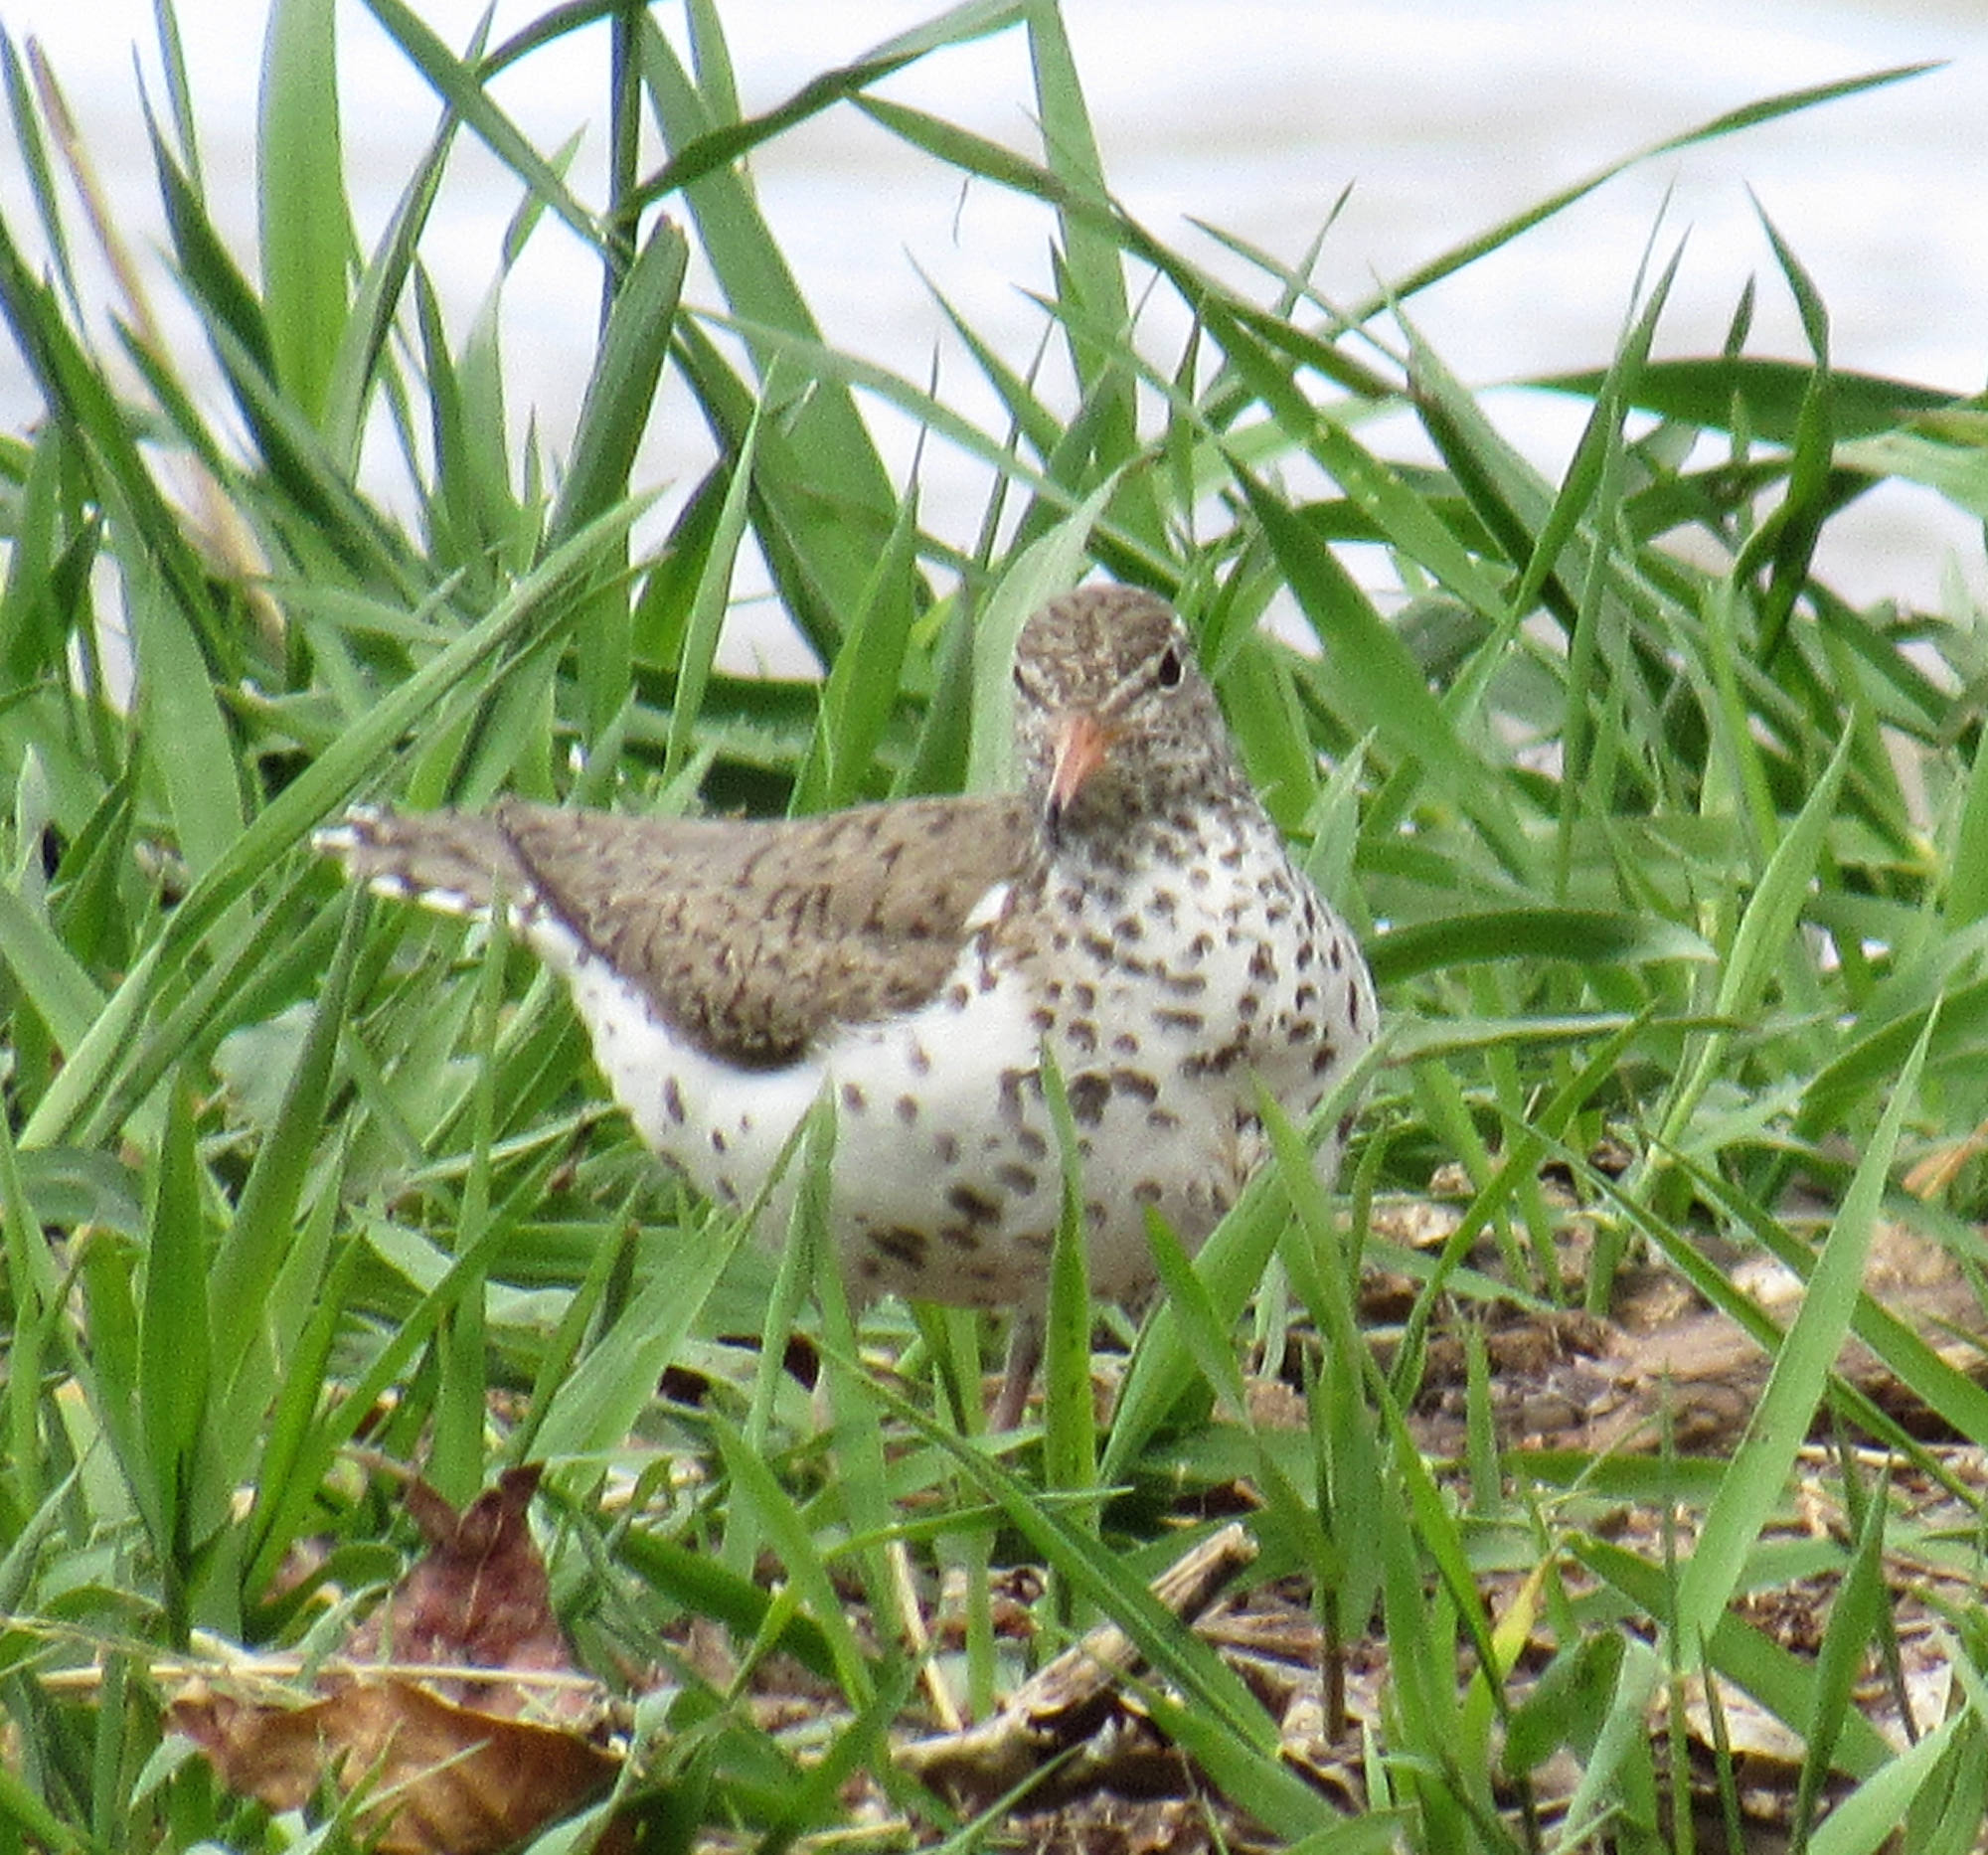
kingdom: Animalia
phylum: Chordata
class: Aves
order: Charadriiformes
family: Scolopacidae
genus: Actitis
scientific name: Actitis macularius
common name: Spotted sandpiper
